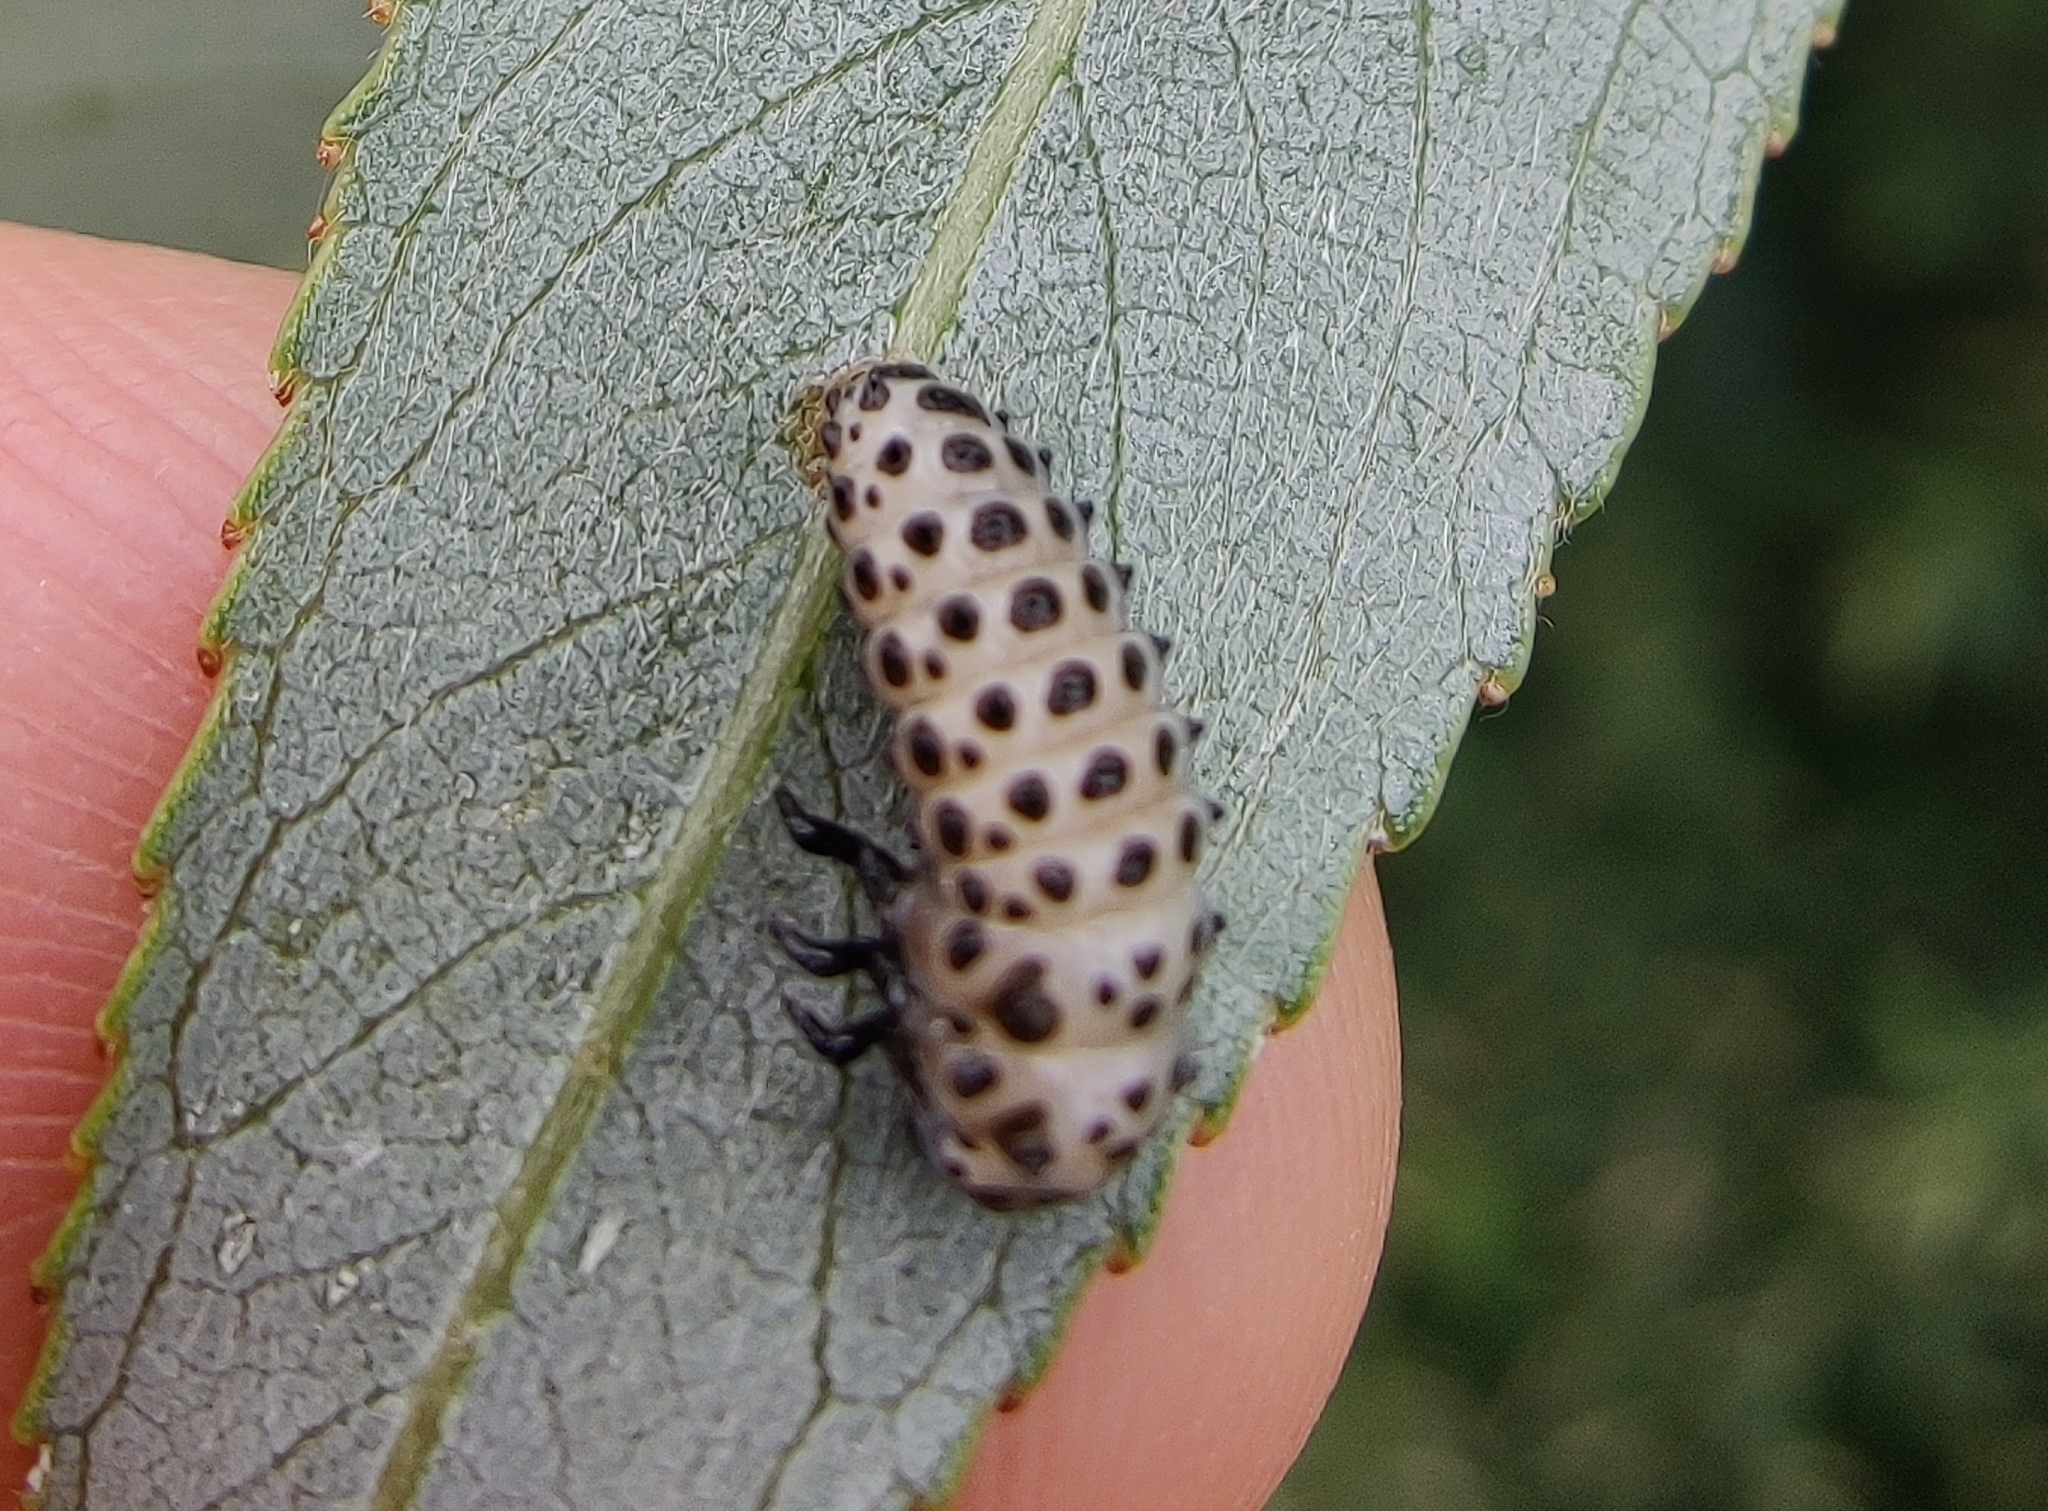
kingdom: Animalia
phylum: Arthropoda
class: Insecta
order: Coleoptera
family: Chrysomelidae
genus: Chrysomela
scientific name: Chrysomela vigintipunctata
